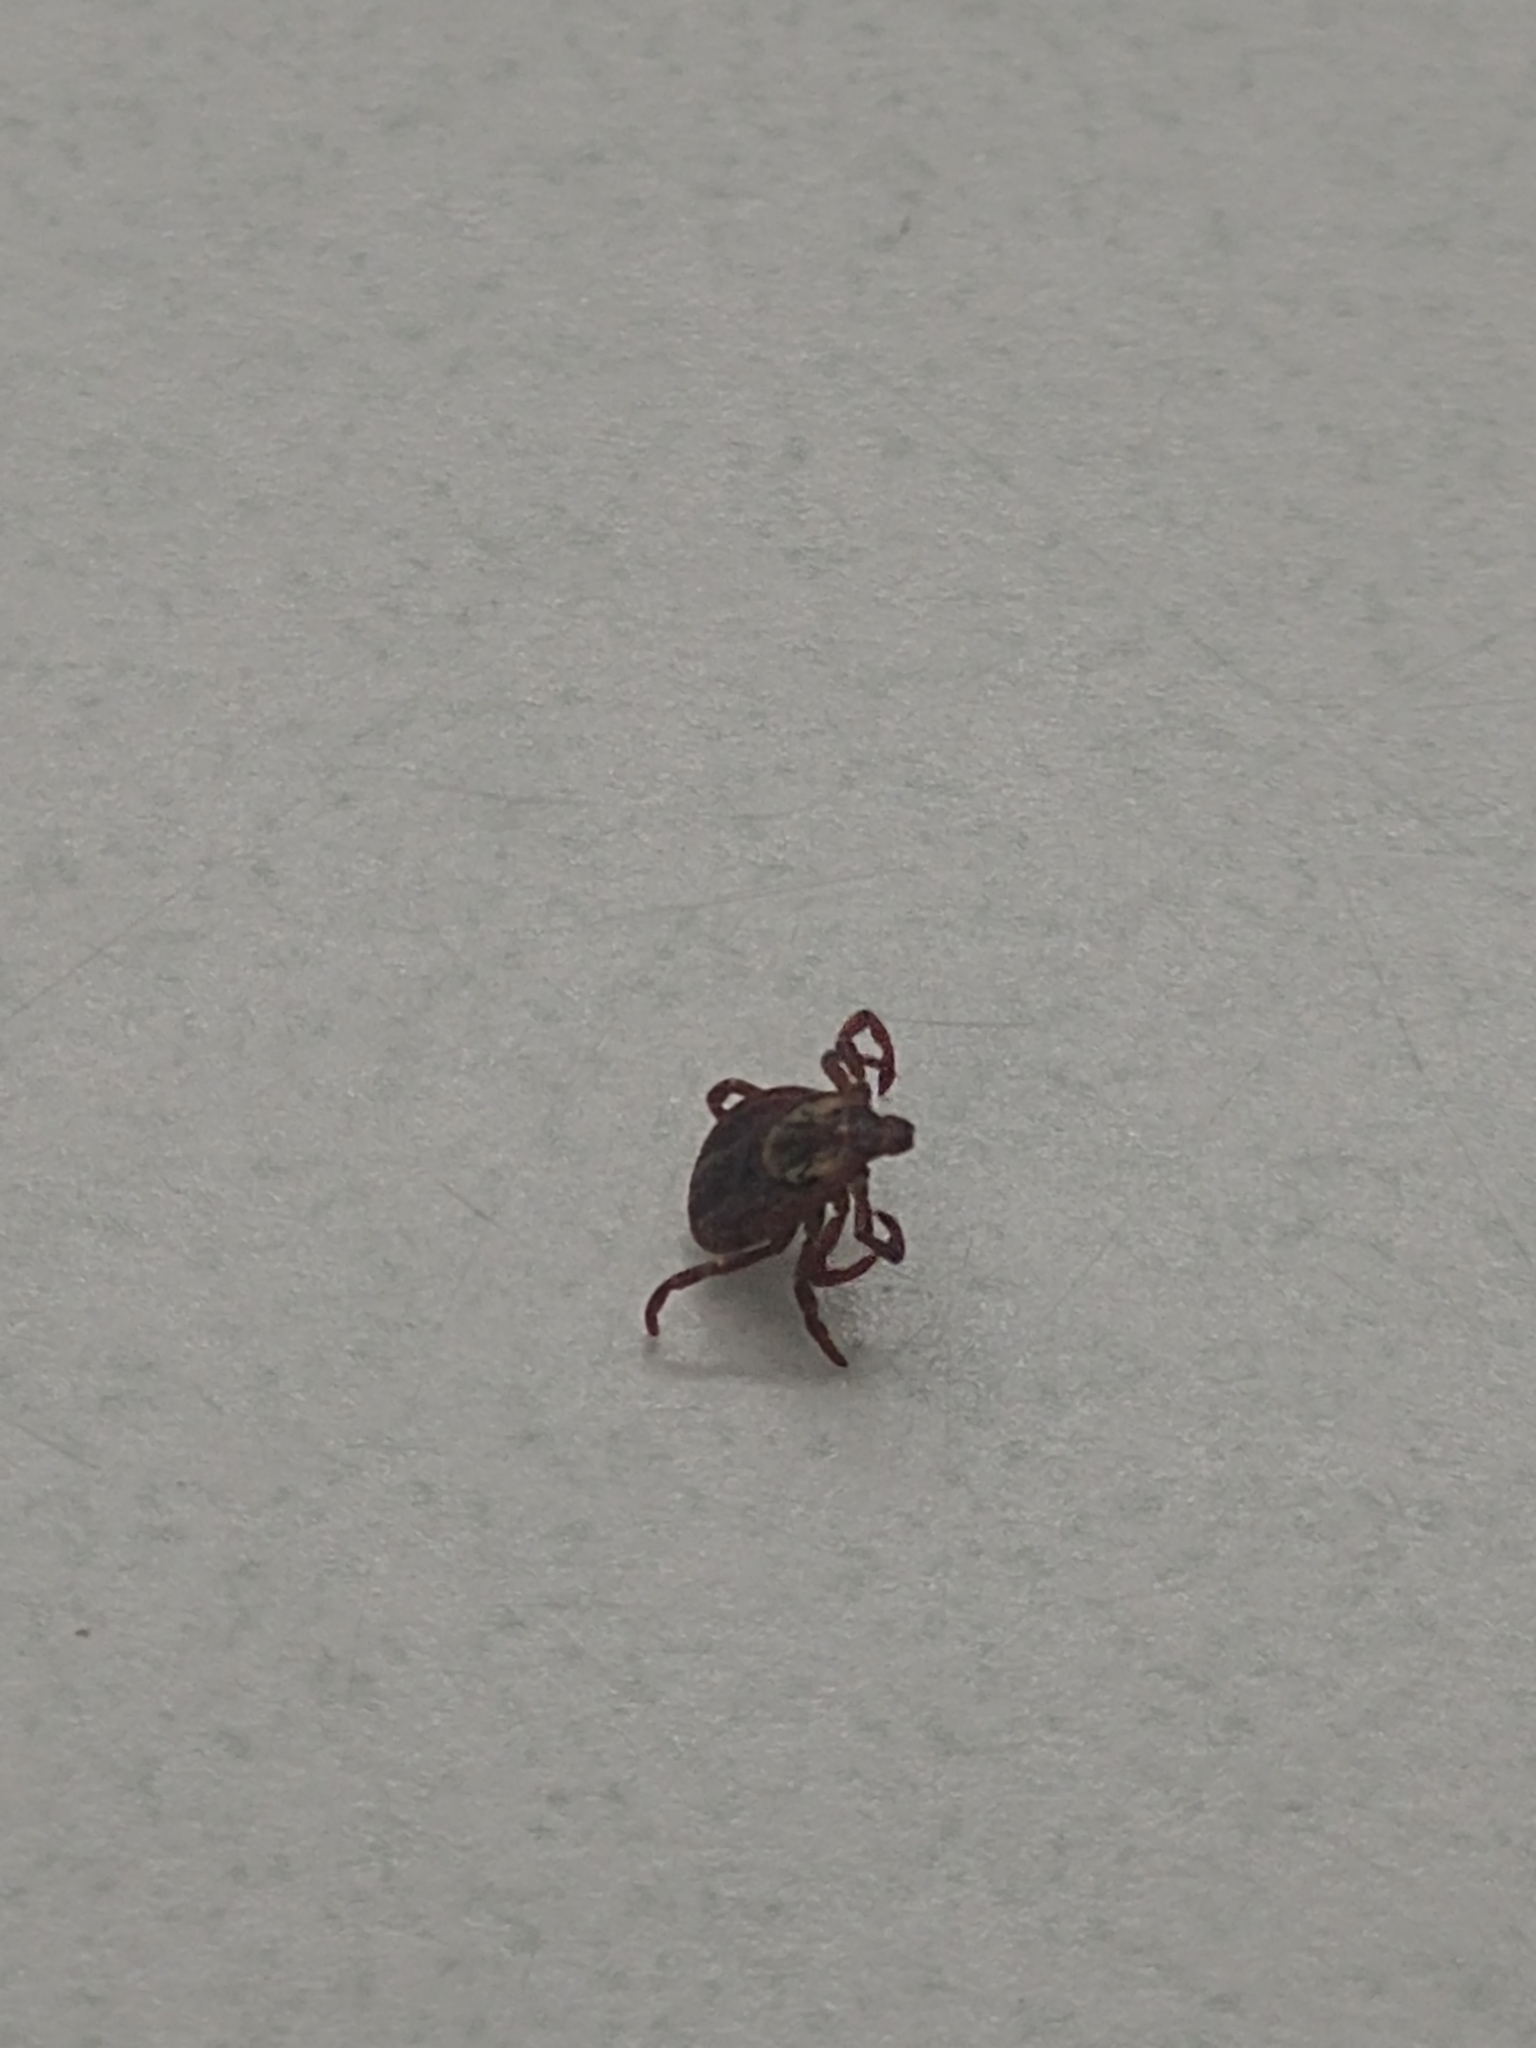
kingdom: Animalia
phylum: Arthropoda
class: Arachnida
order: Ixodida
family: Ixodidae
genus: Dermacentor
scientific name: Dermacentor variabilis
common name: American dog tick
